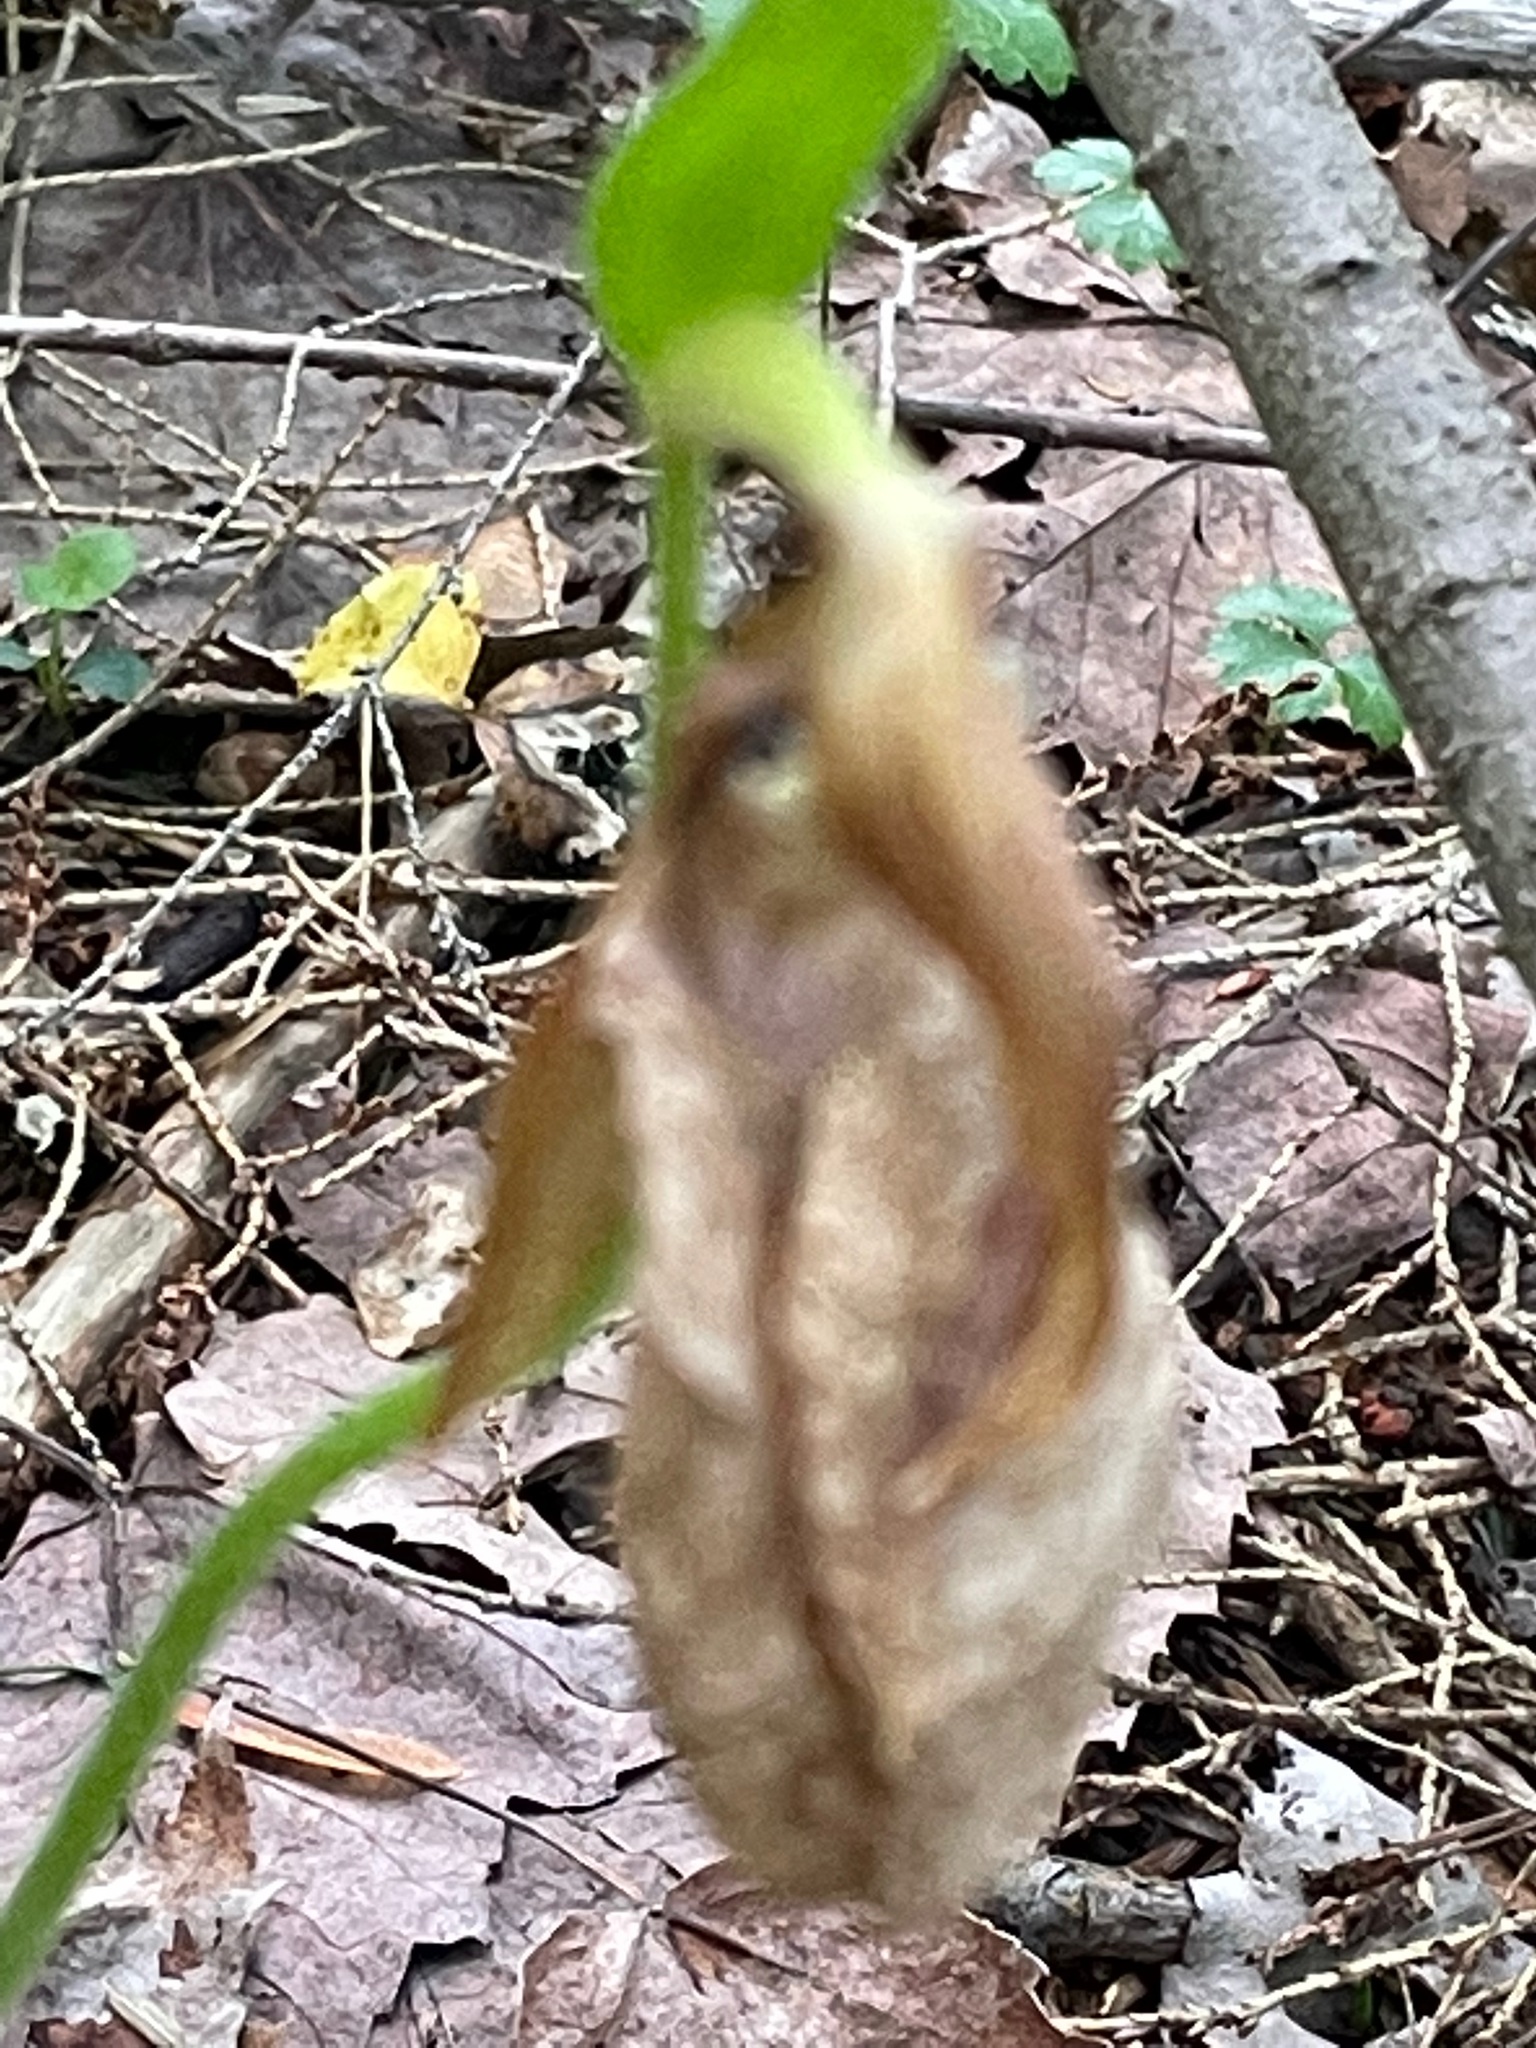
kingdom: Plantae
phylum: Tracheophyta
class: Liliopsida
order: Asparagales
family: Orchidaceae
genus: Cypripedium
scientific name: Cypripedium acaule
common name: Pink lady's-slipper
